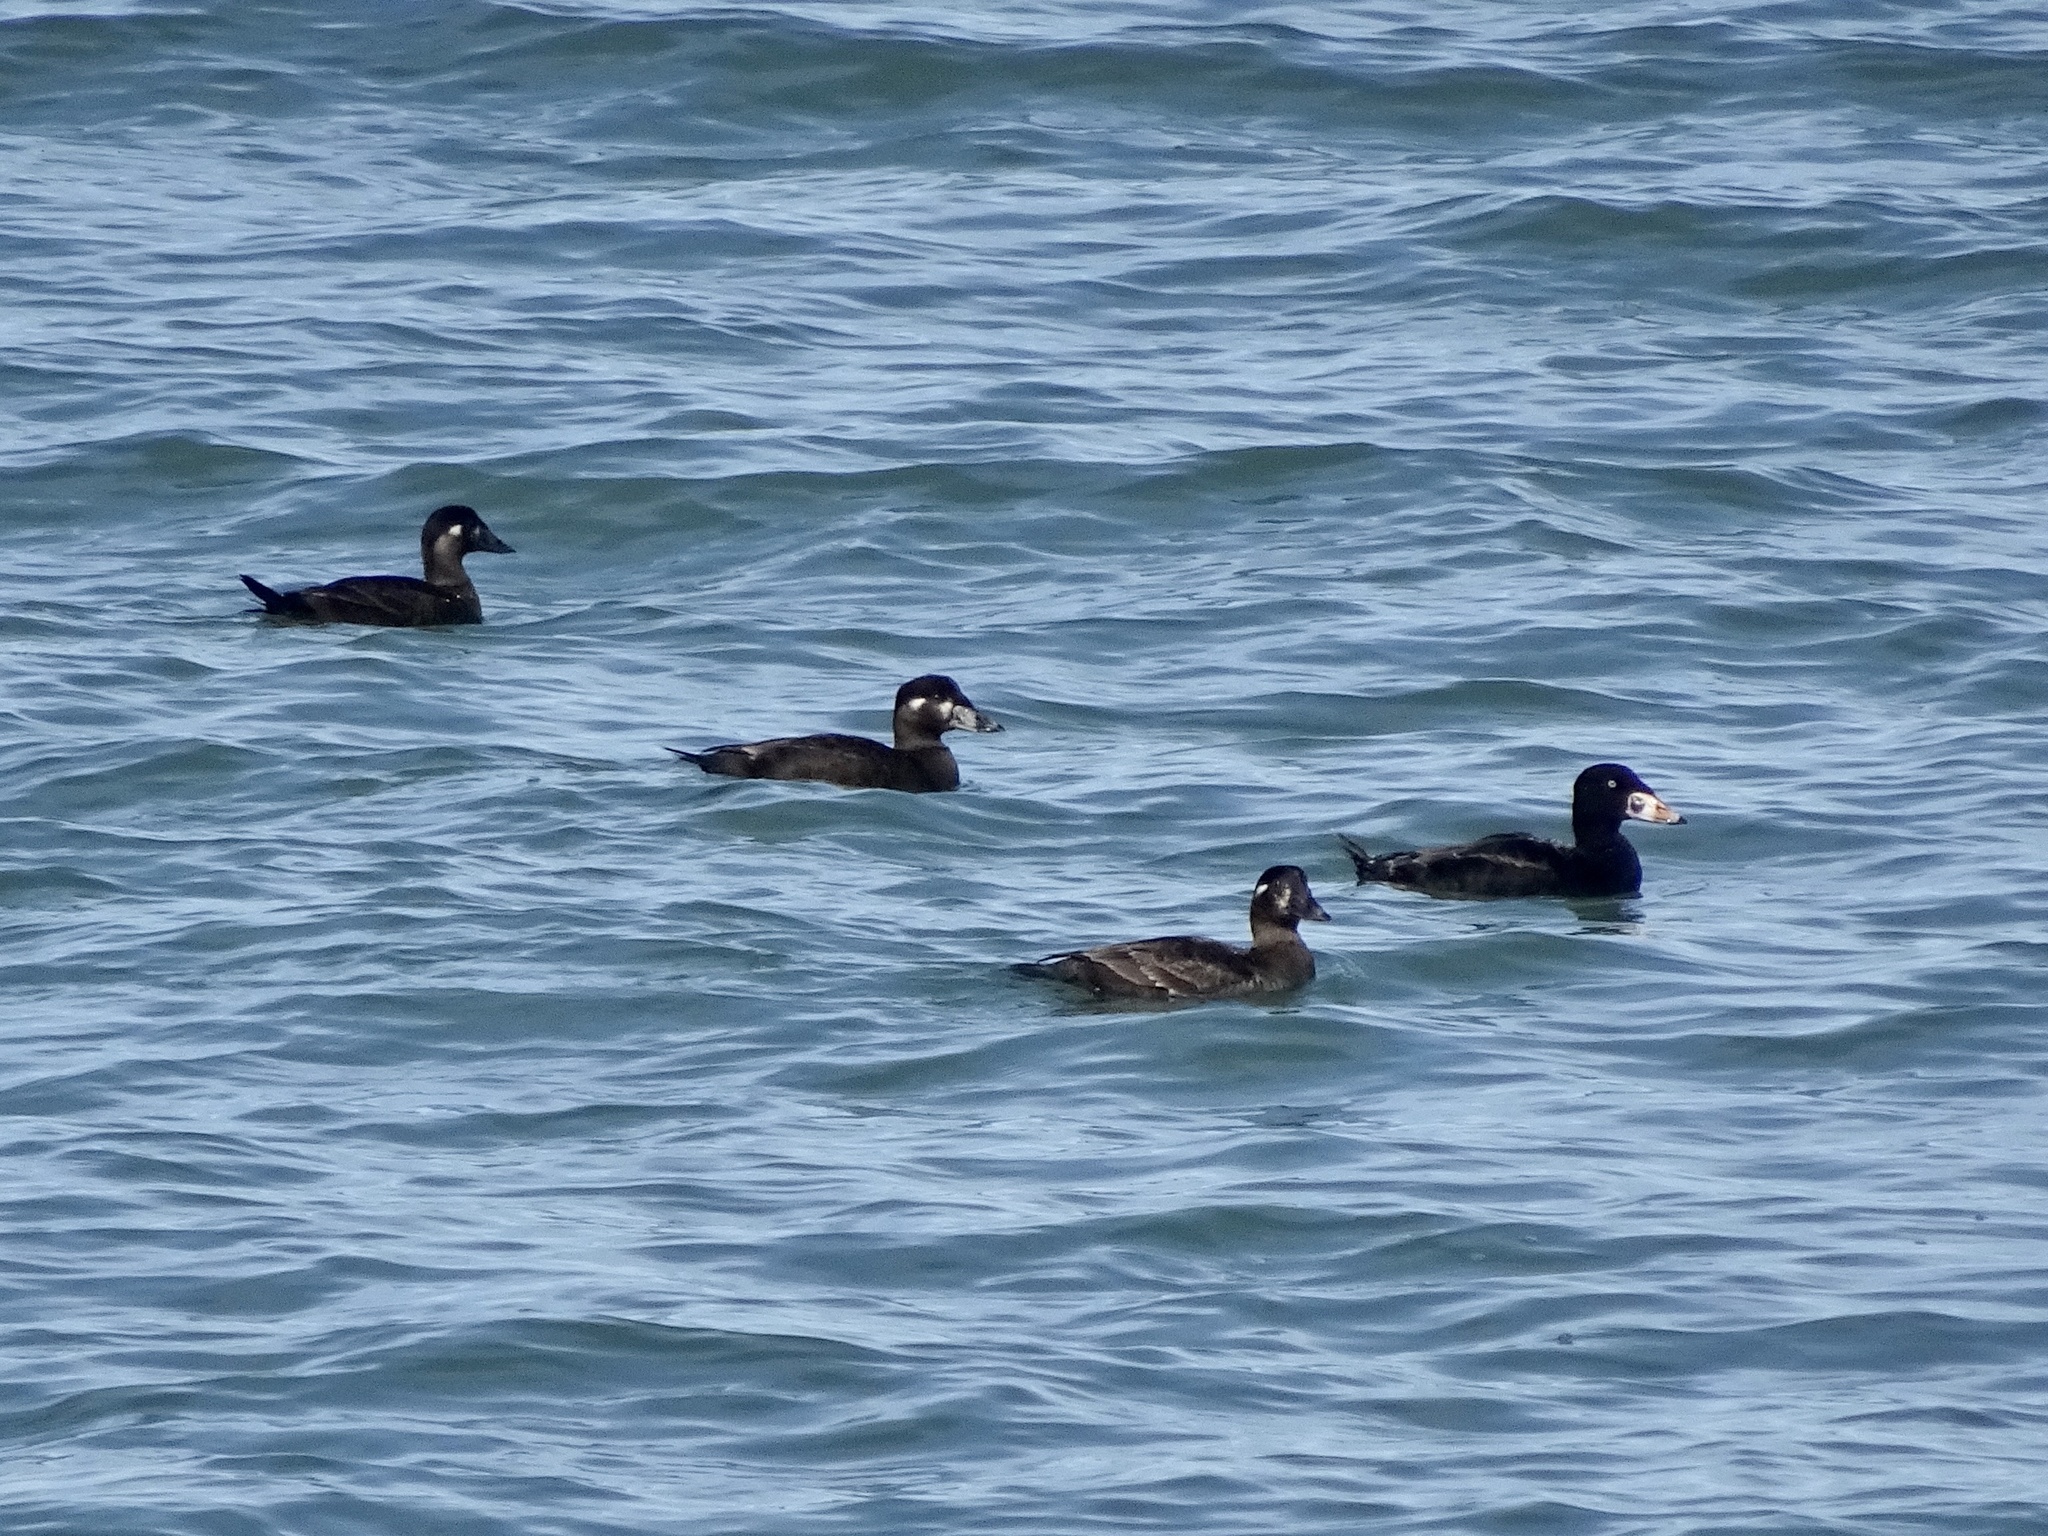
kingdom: Animalia
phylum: Chordata
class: Aves
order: Anseriformes
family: Anatidae
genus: Melanitta
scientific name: Melanitta perspicillata
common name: Surf scoter
